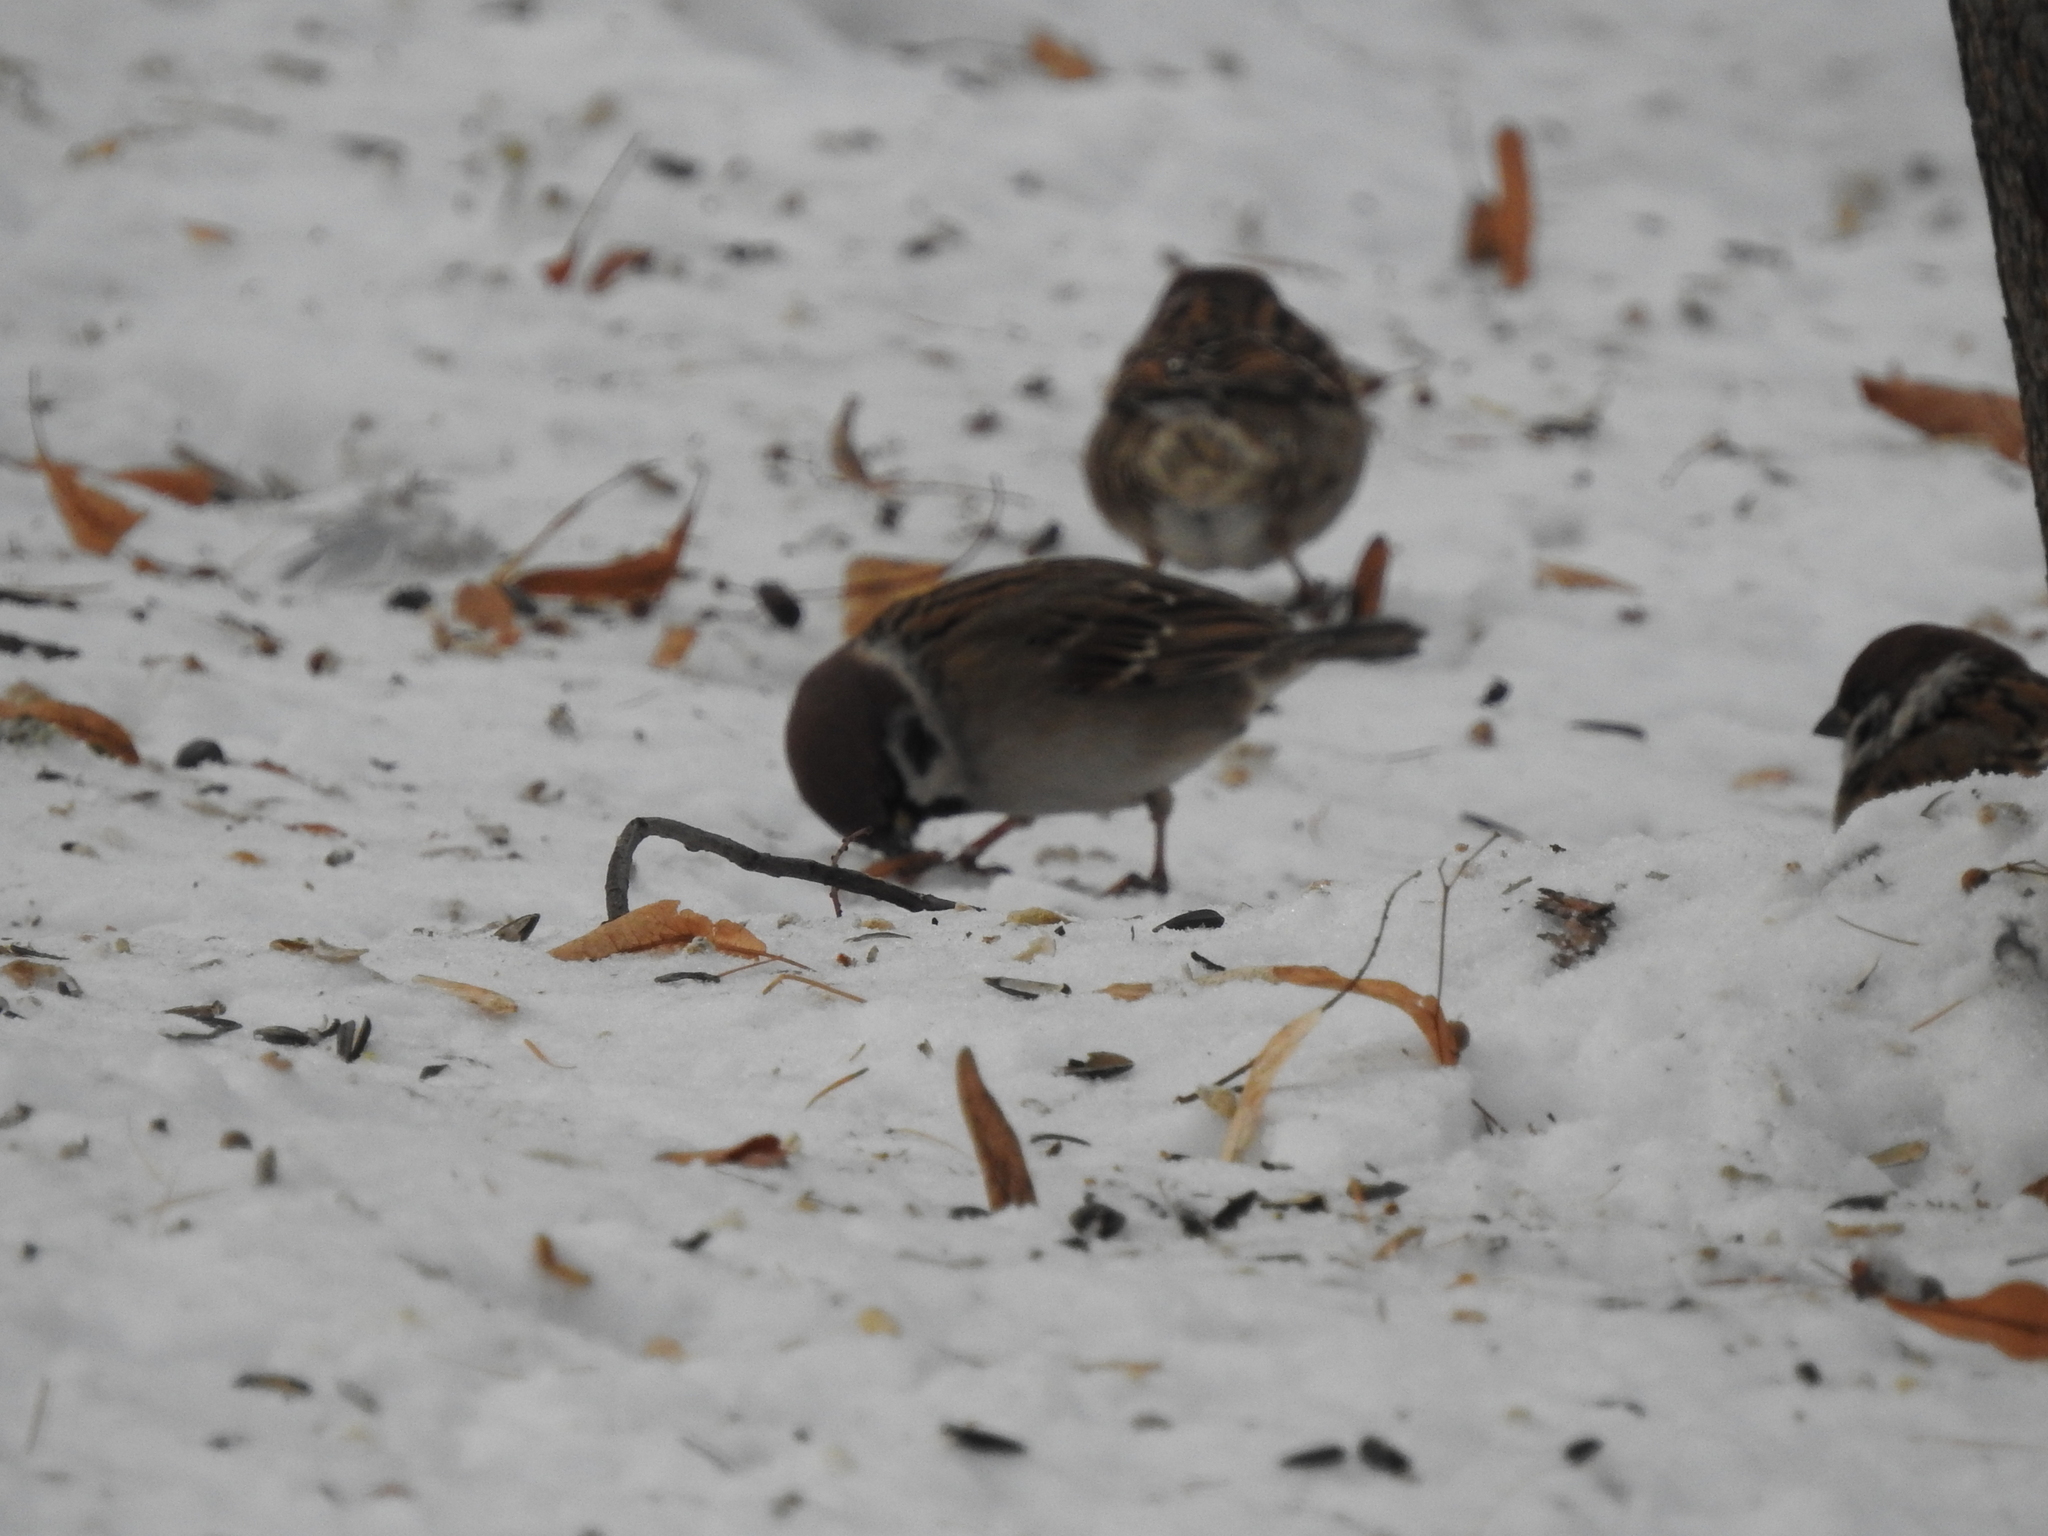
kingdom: Animalia
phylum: Chordata
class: Aves
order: Passeriformes
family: Passeridae
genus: Passer
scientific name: Passer montanus
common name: Eurasian tree sparrow
